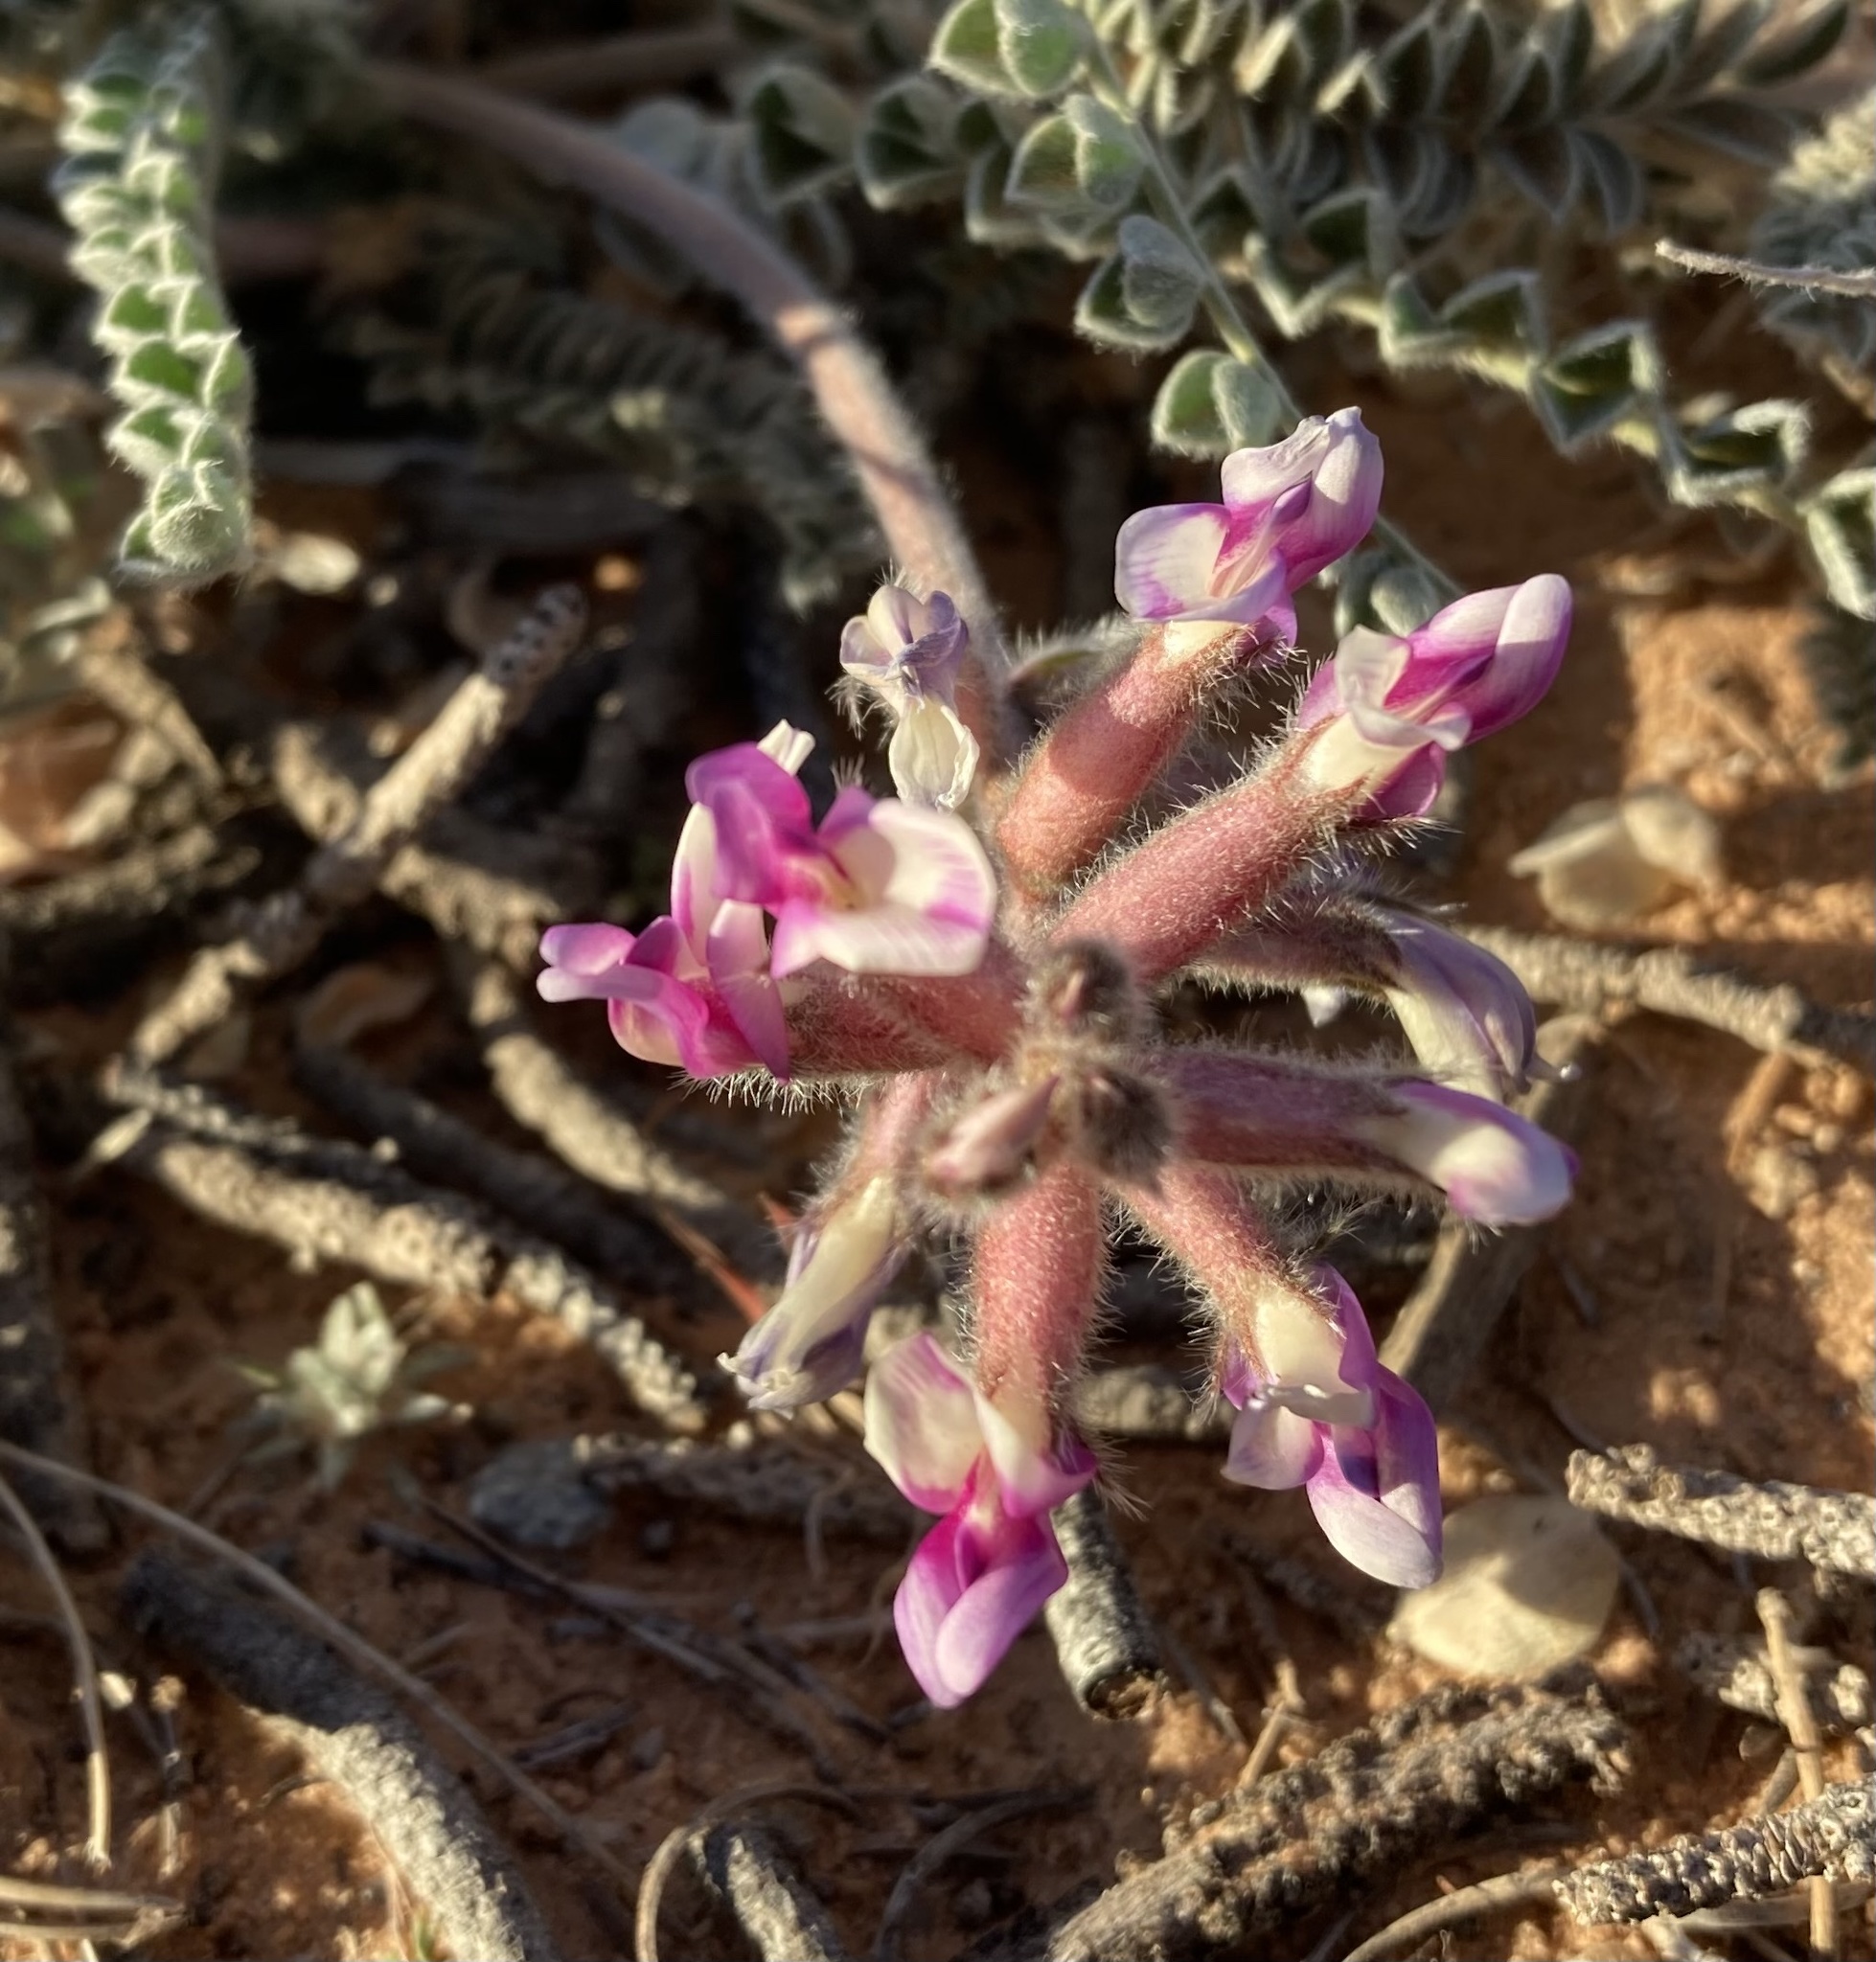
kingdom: Plantae
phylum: Tracheophyta
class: Magnoliopsida
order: Fabales
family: Fabaceae
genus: Astragalus
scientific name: Astragalus mollissimus
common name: Woolly locoweed
